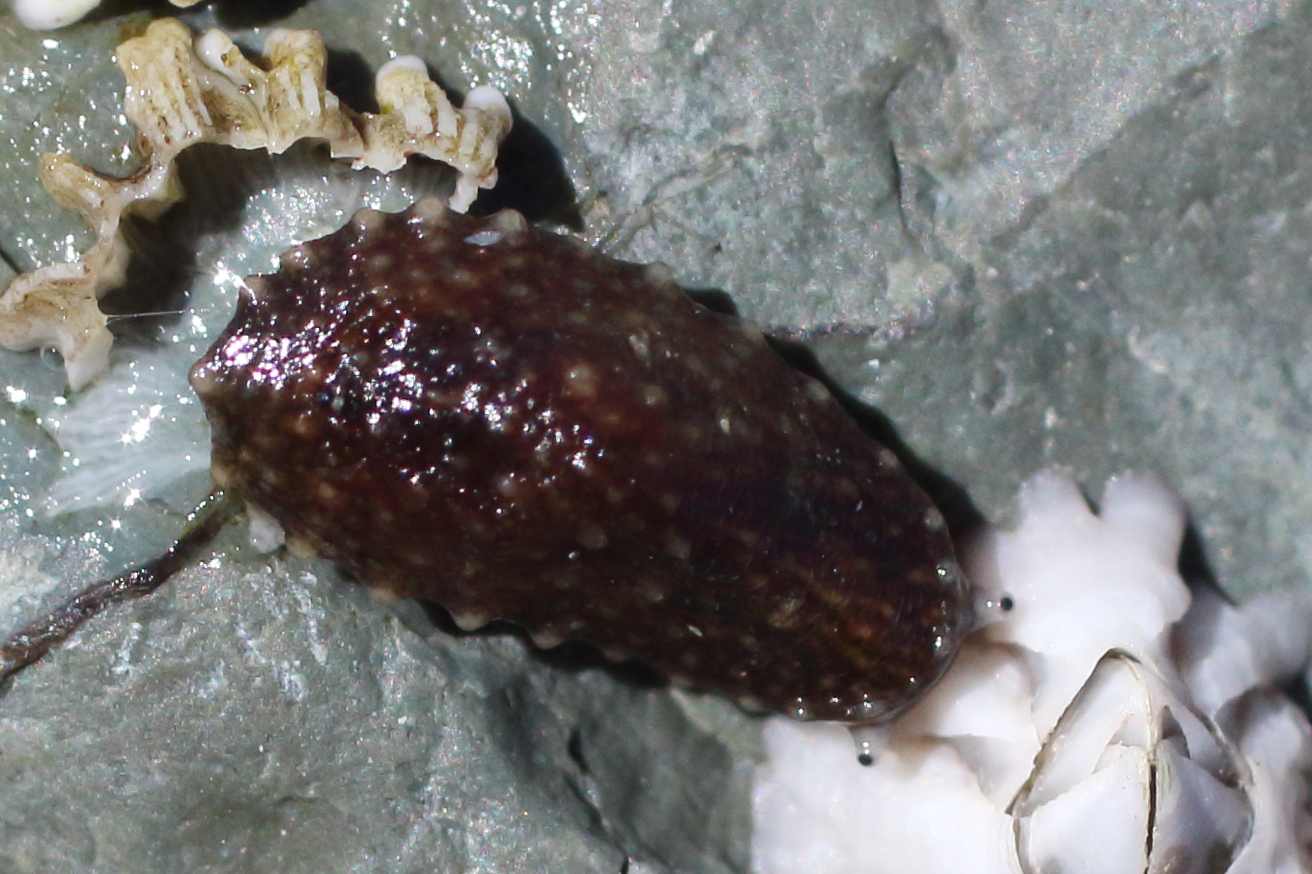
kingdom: Animalia
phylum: Mollusca
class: Gastropoda
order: Systellommatophora
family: Onchidiidae
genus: Onchidella
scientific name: Onchidella carpenteri
